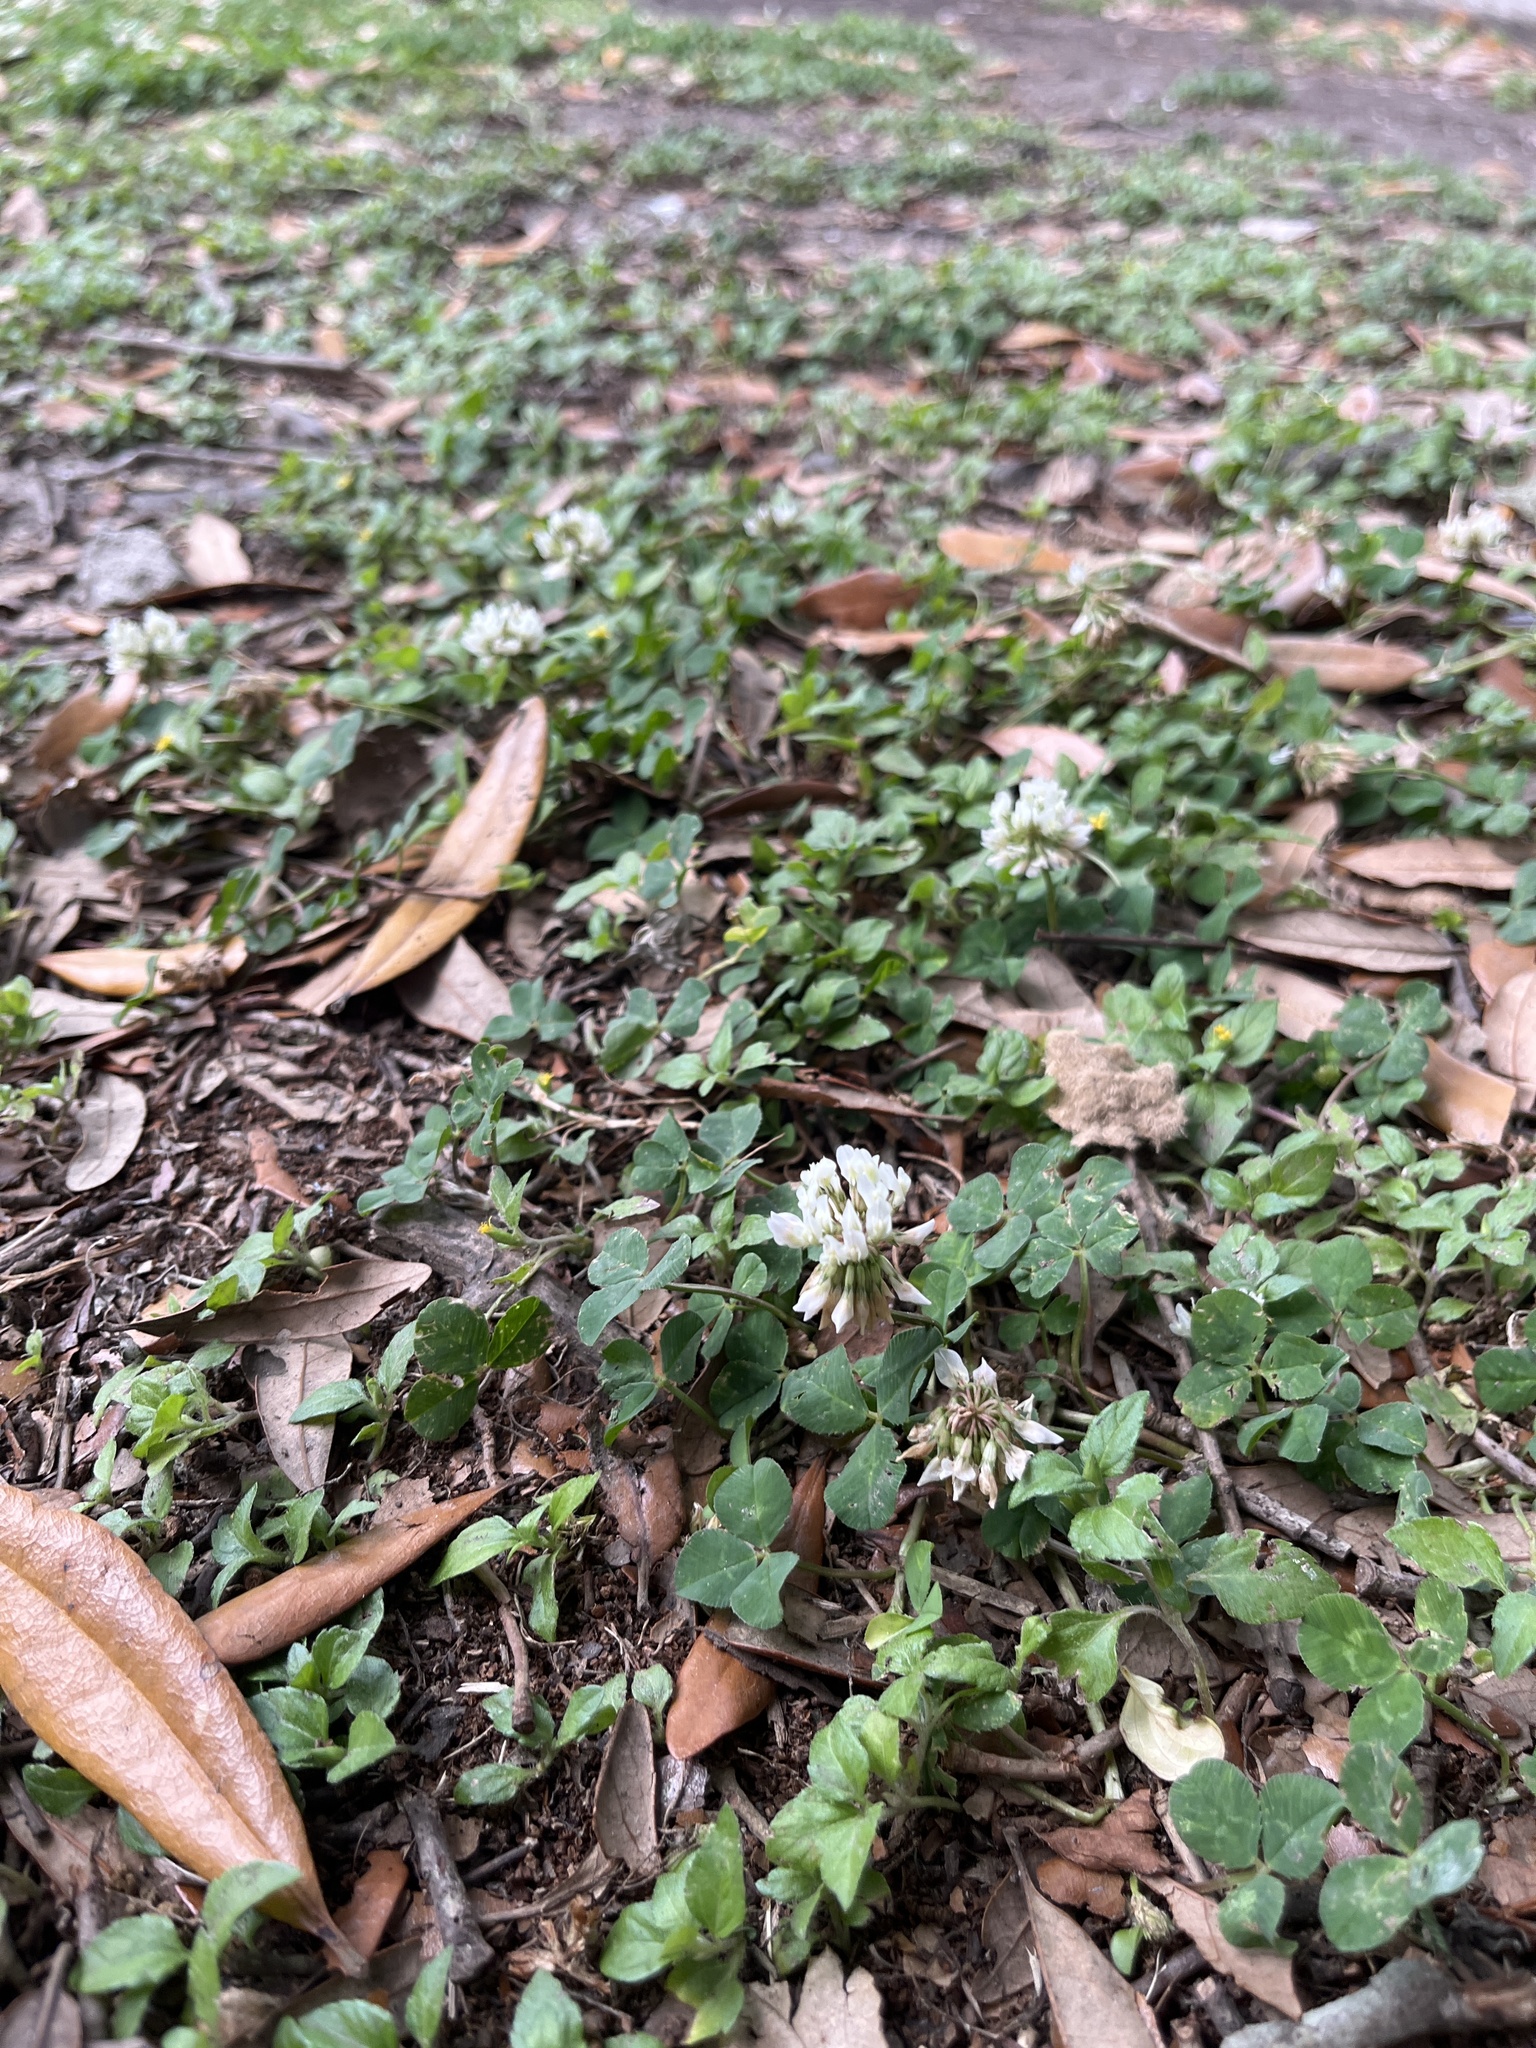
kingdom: Plantae
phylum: Tracheophyta
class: Magnoliopsida
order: Fabales
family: Fabaceae
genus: Trifolium
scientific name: Trifolium repens
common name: White clover
